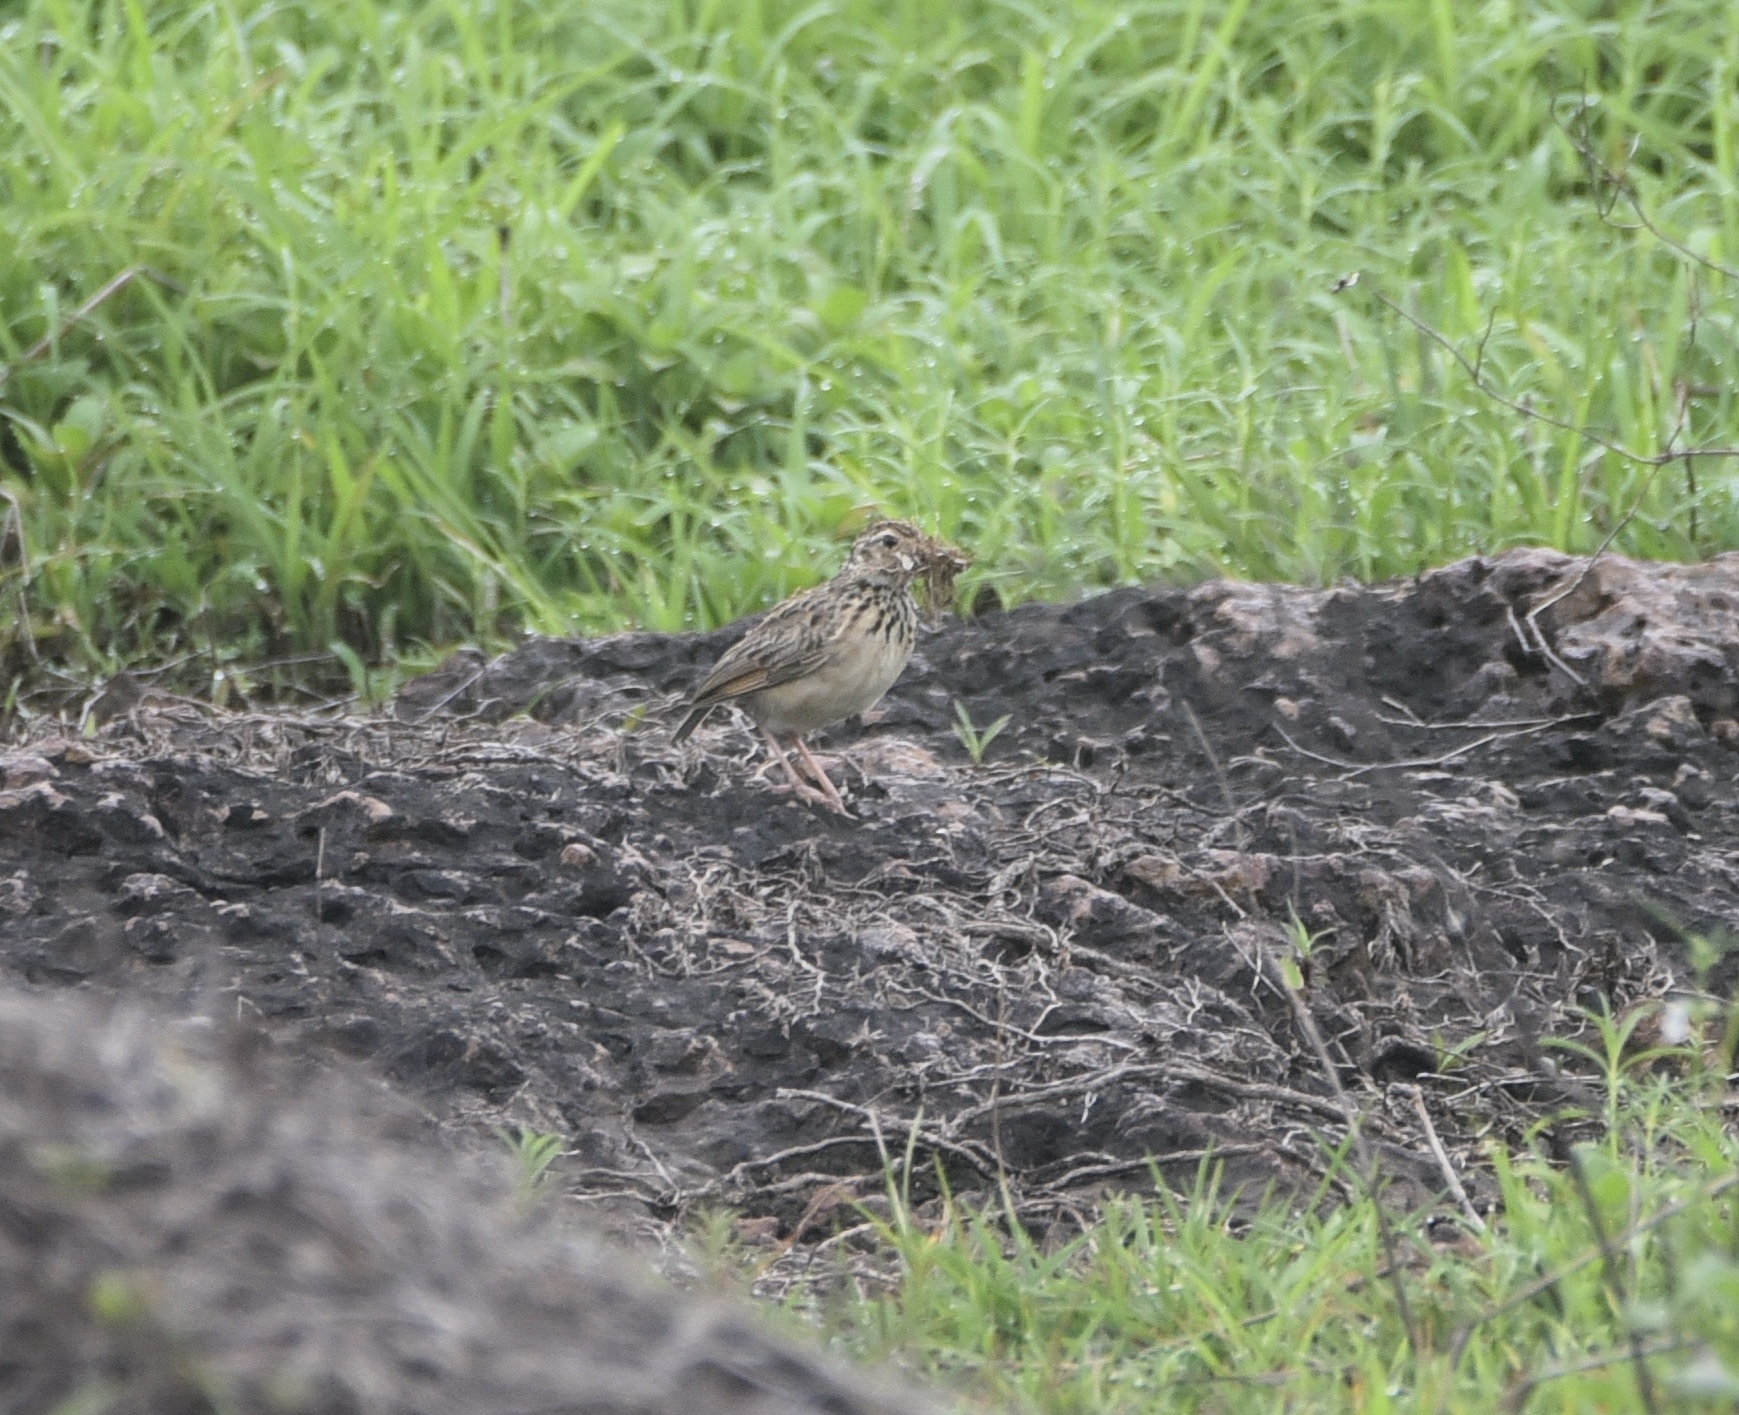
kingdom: Animalia
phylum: Chordata
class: Aves
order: Passeriformes
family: Alaudidae
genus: Mirafra
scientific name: Mirafra affinis
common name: Jerdon's bushlark
